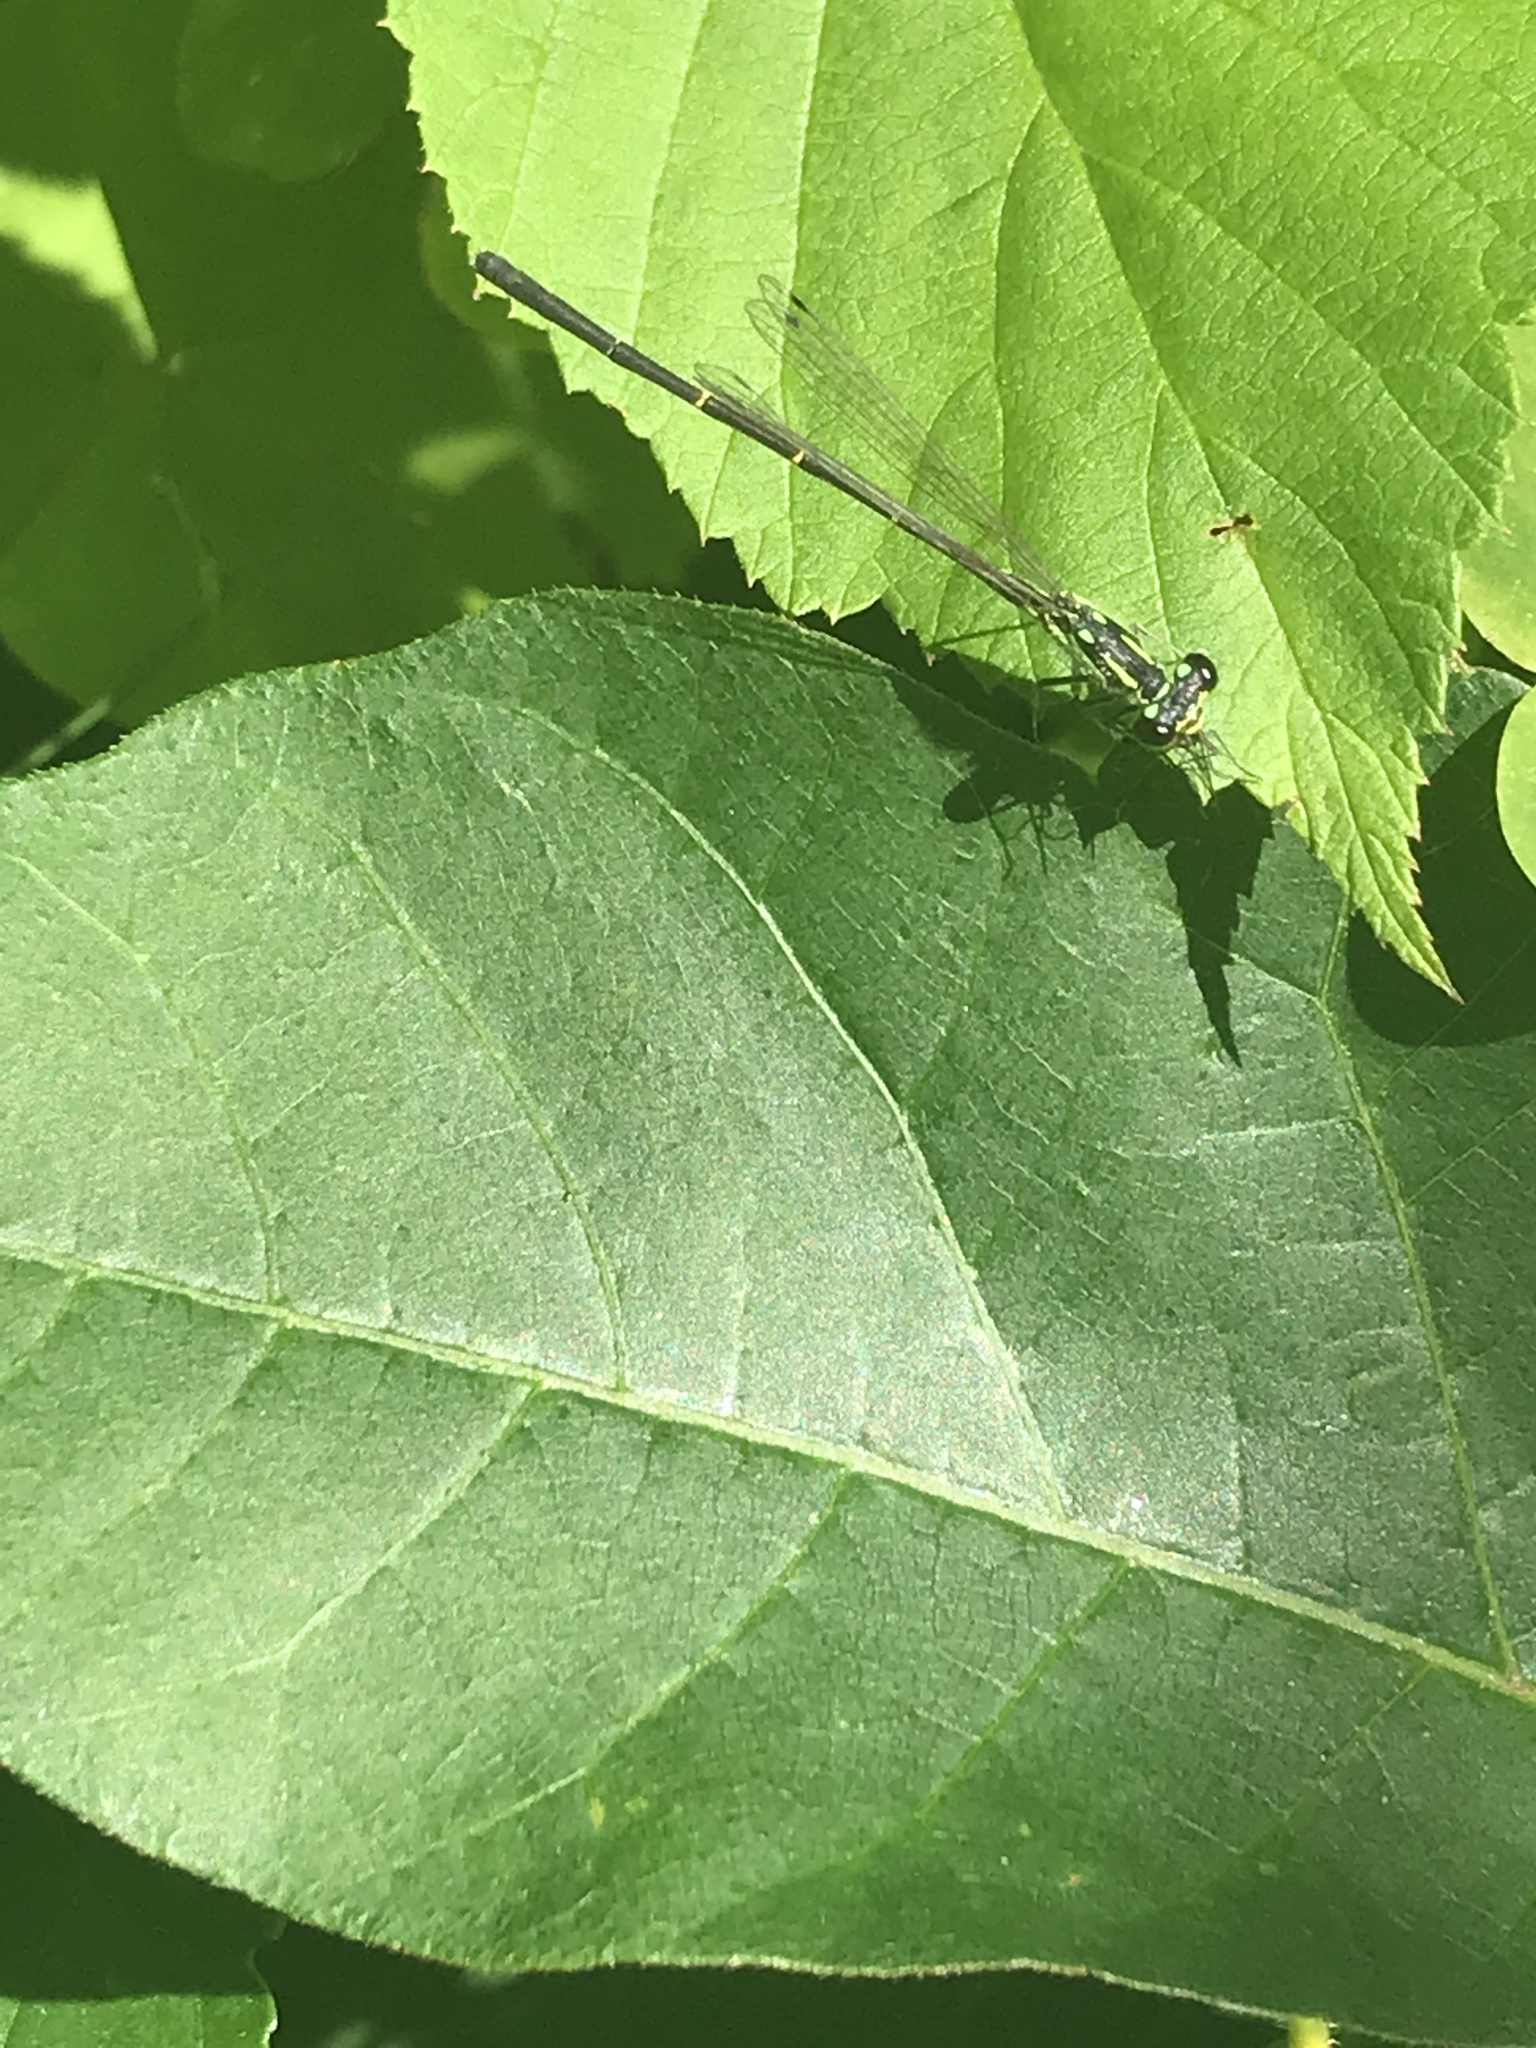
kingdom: Animalia
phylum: Arthropoda
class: Insecta
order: Odonata
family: Coenagrionidae
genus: Ischnura
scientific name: Ischnura posita
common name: Fragile forktail
